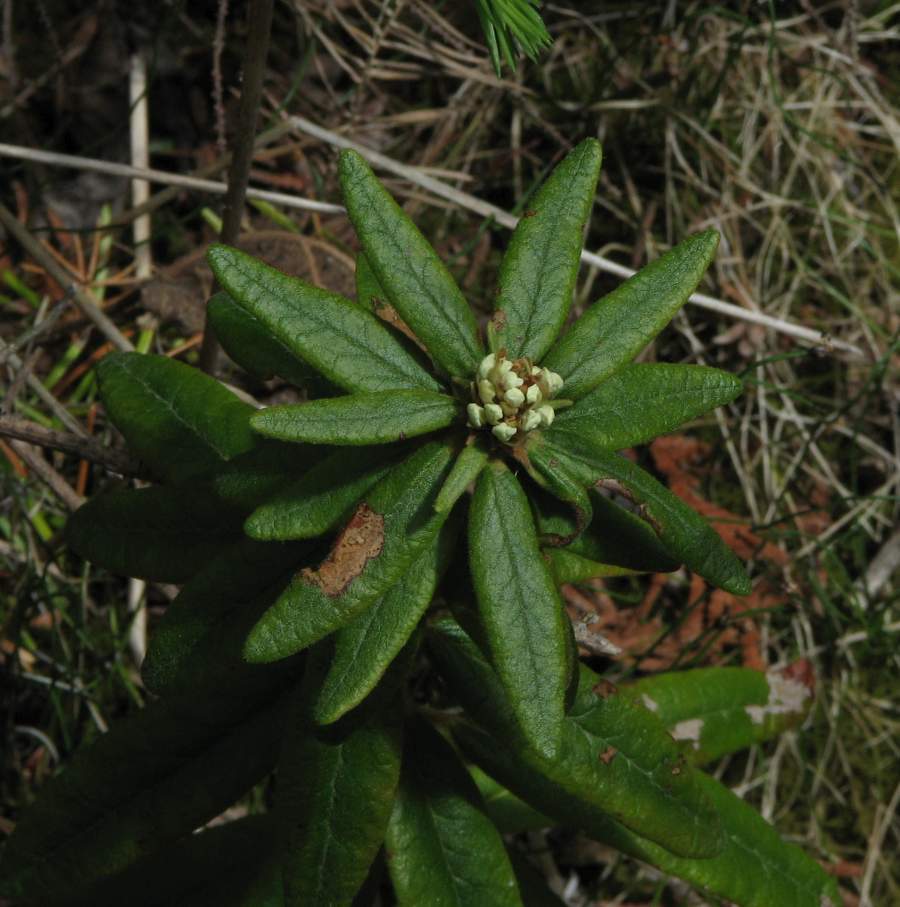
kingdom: Plantae
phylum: Tracheophyta
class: Magnoliopsida
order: Ericales
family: Ericaceae
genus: Rhododendron
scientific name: Rhododendron groenlandicum
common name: Bog labrador tea
